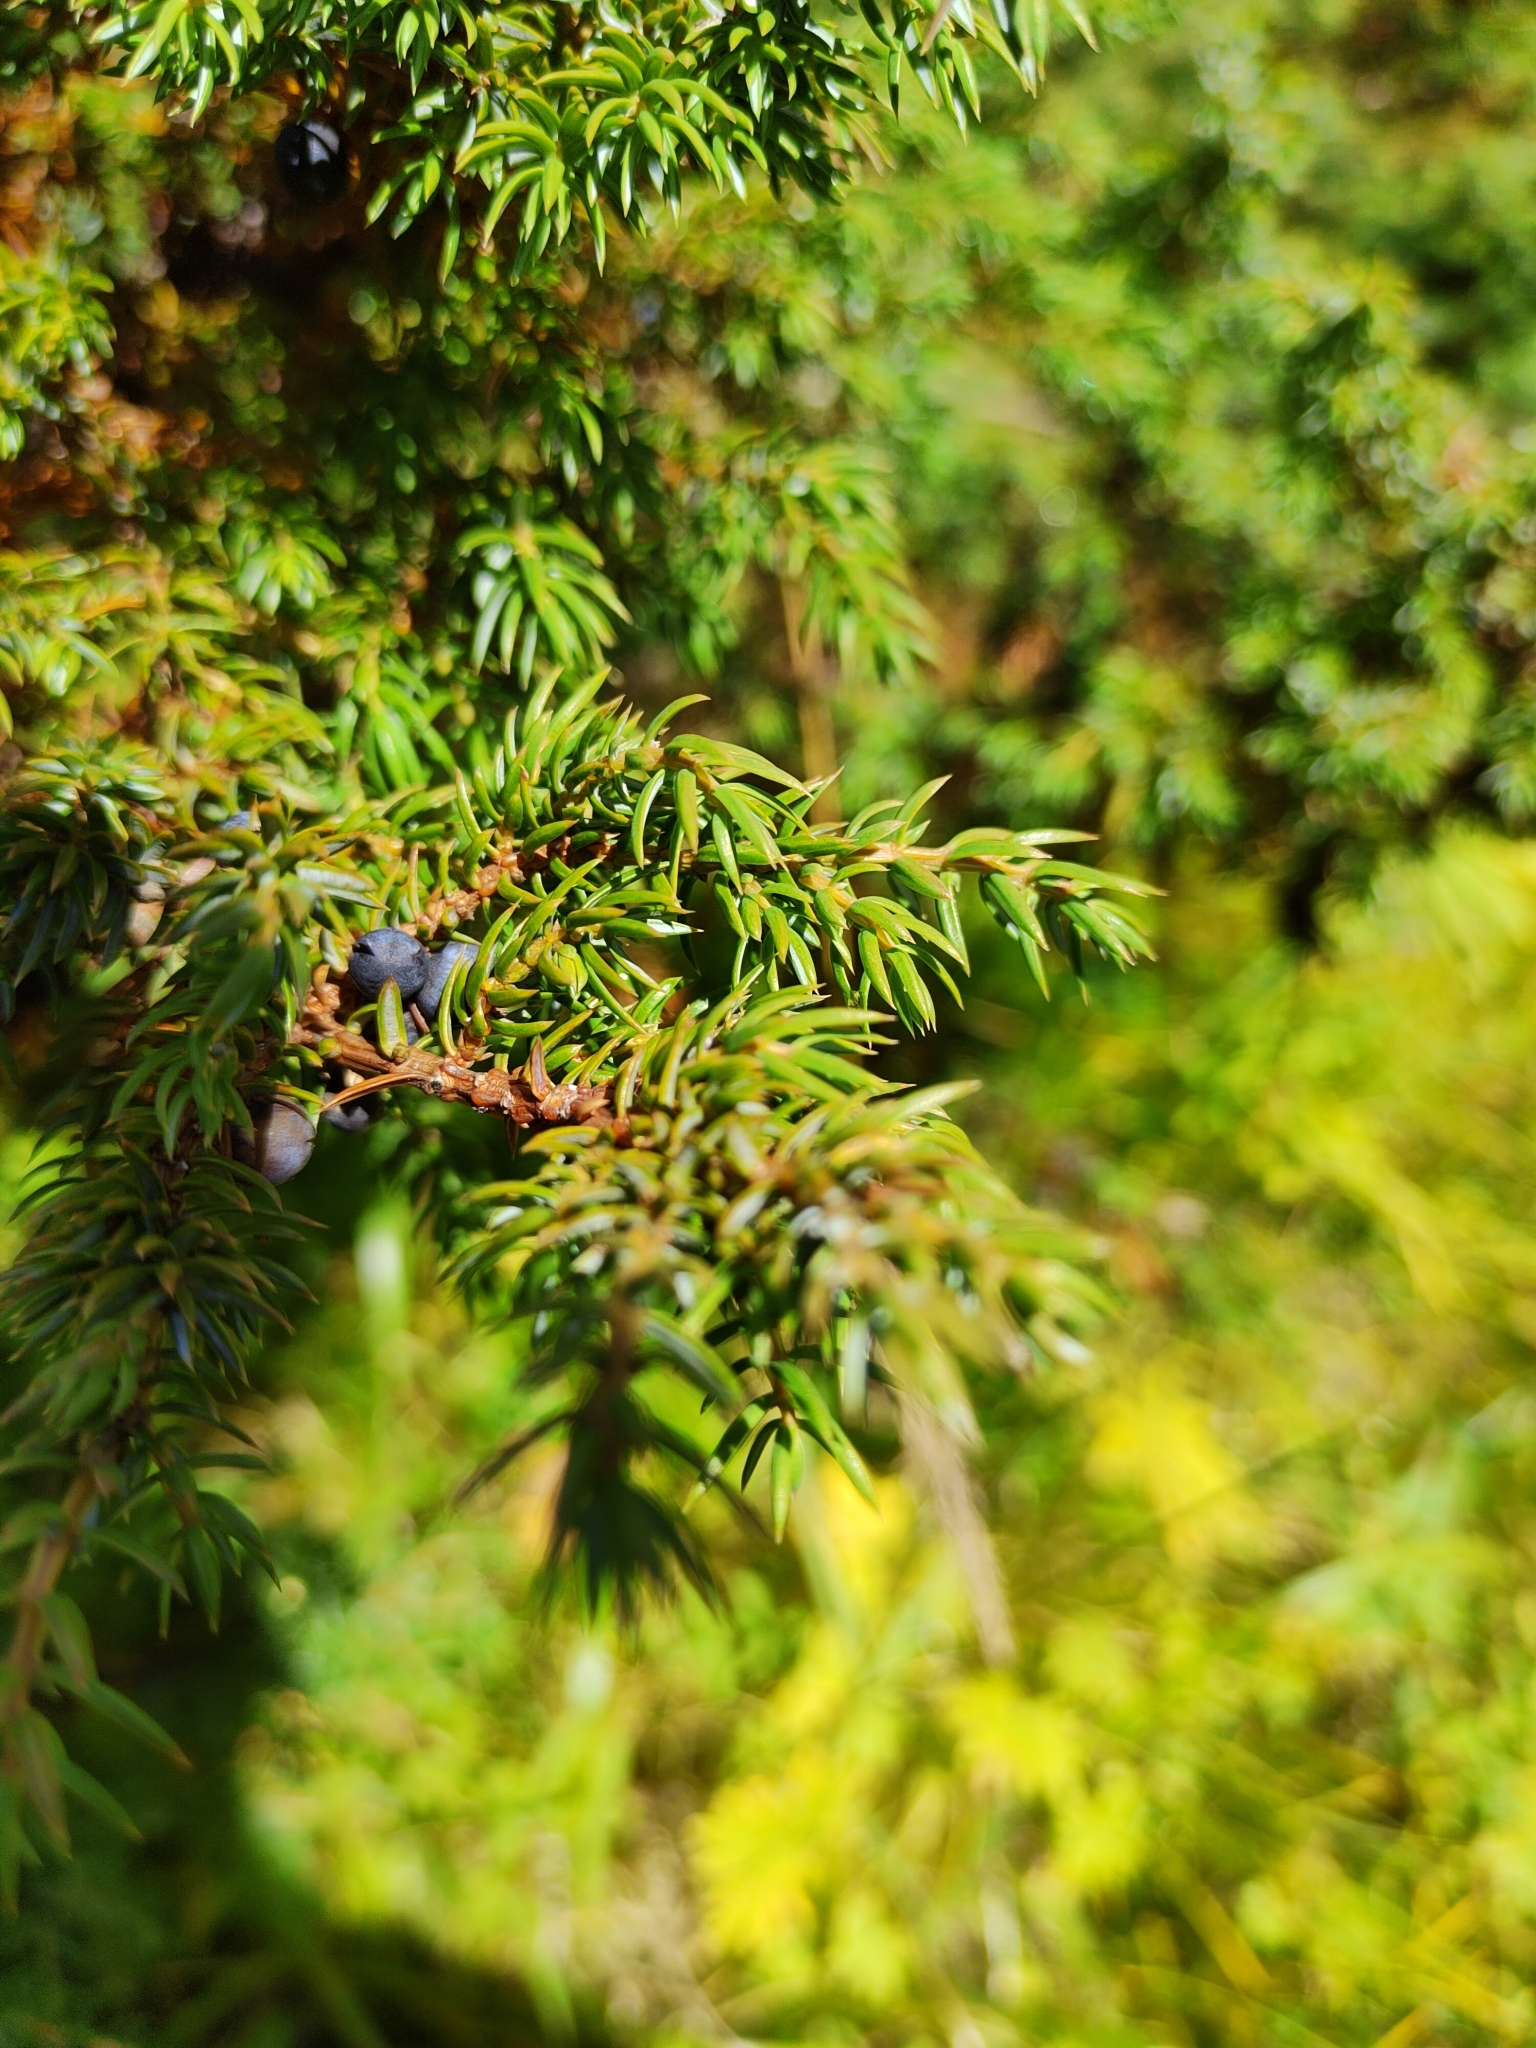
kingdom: Plantae
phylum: Tracheophyta
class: Pinopsida
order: Pinales
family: Cupressaceae
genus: Juniperus
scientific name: Juniperus communis
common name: Common juniper
